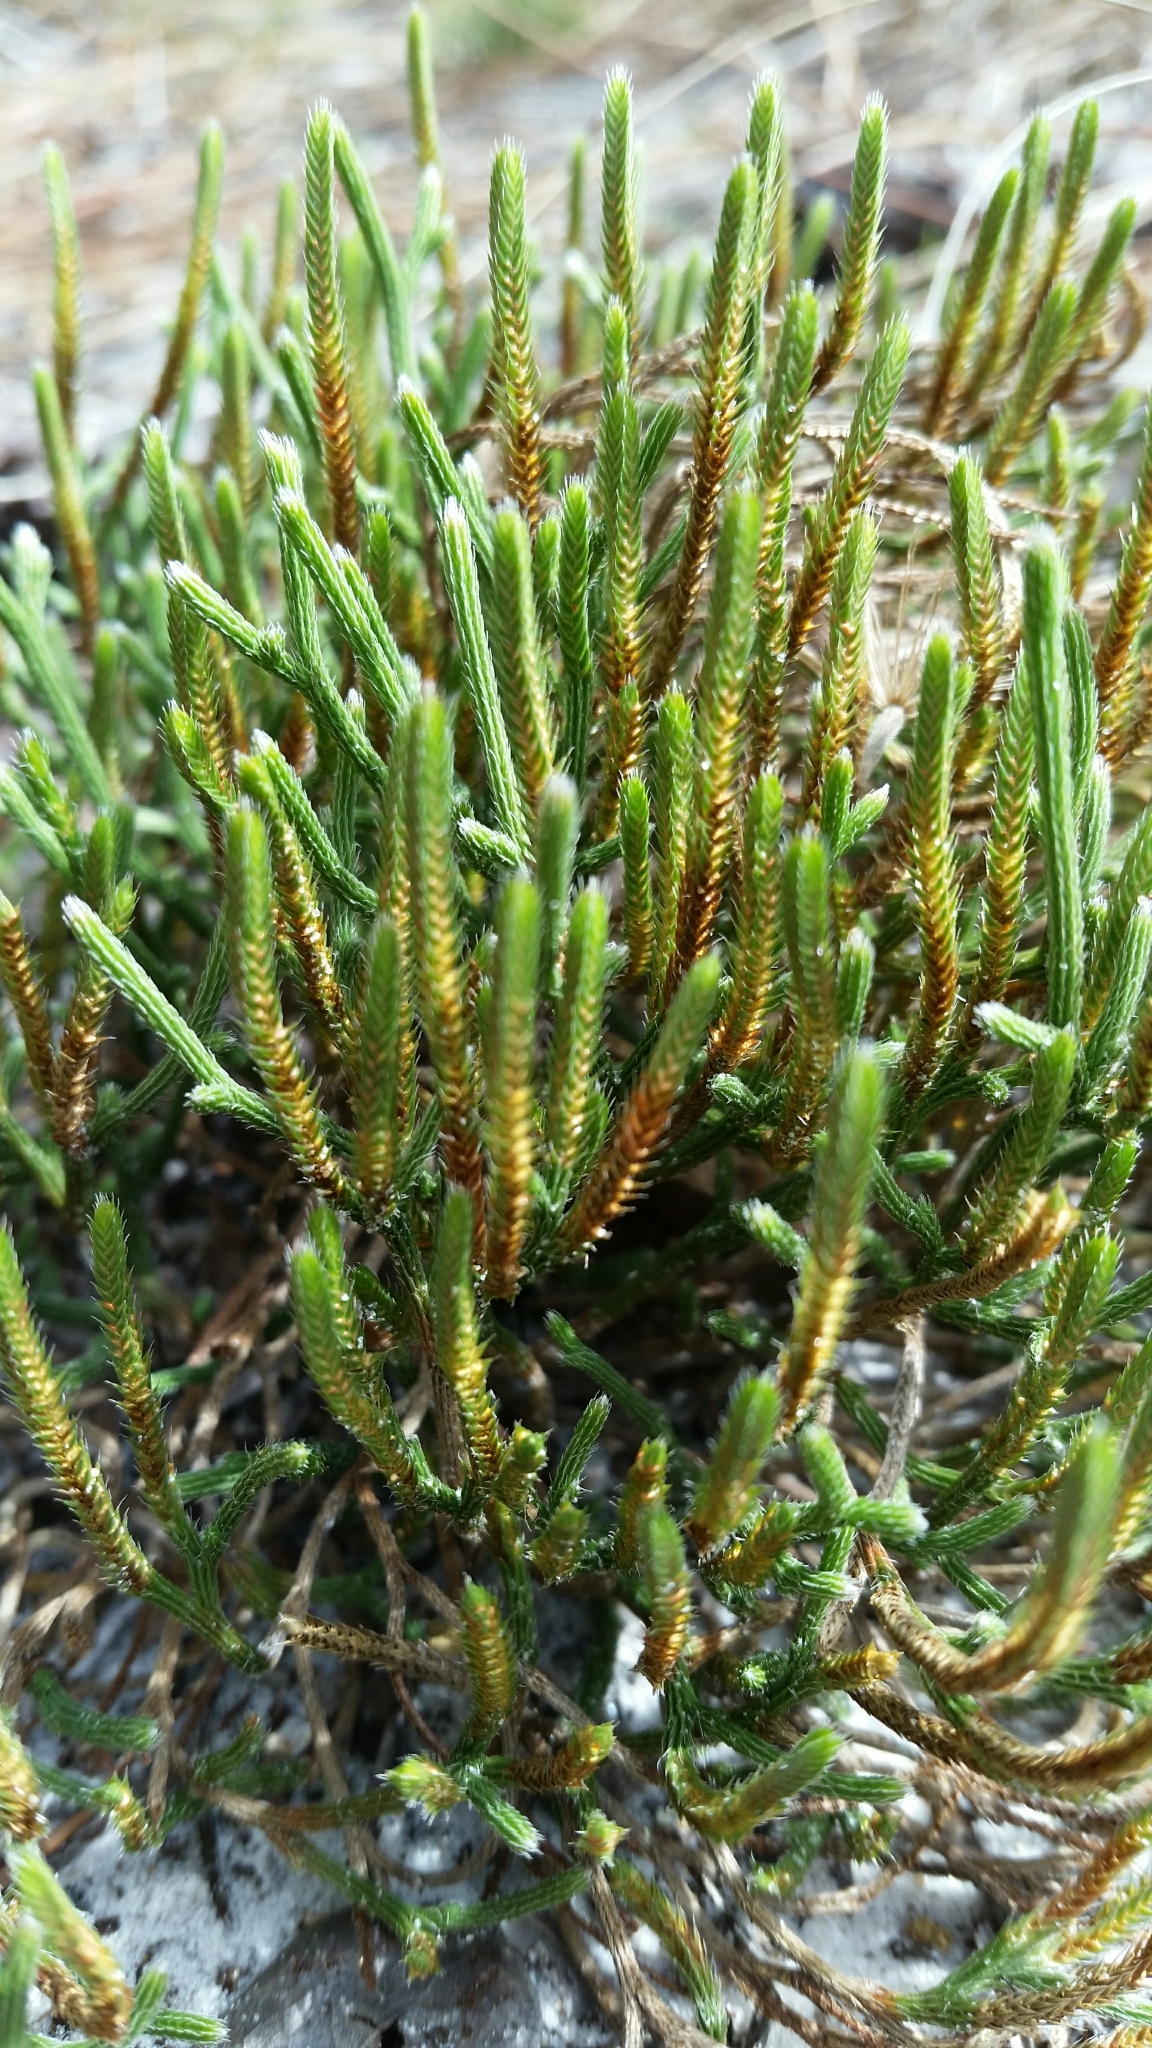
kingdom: Plantae
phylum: Tracheophyta
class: Lycopodiopsida
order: Selaginellales
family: Selaginellaceae
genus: Selaginella
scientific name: Selaginella arenicola
